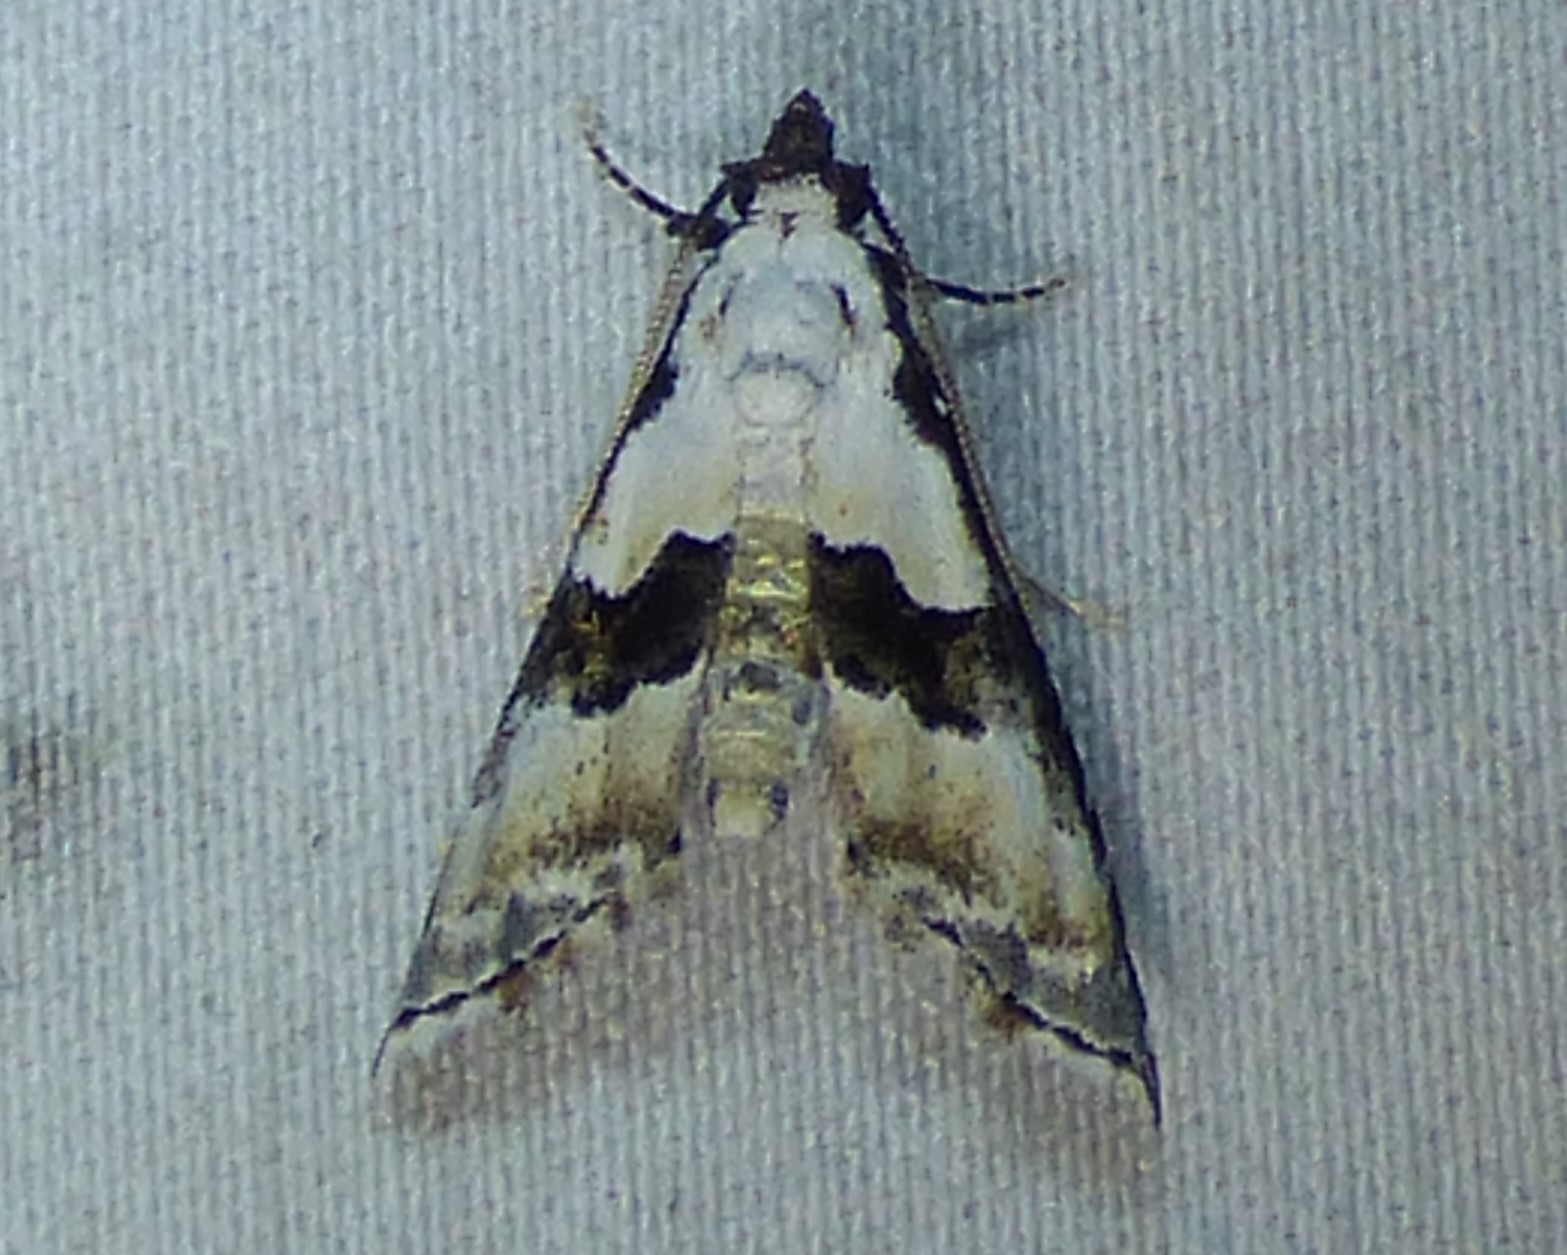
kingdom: Animalia
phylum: Arthropoda
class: Insecta
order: Lepidoptera
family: Noctuidae
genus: Nigetia
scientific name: Nigetia formosalis
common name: Thin-winged owlet
